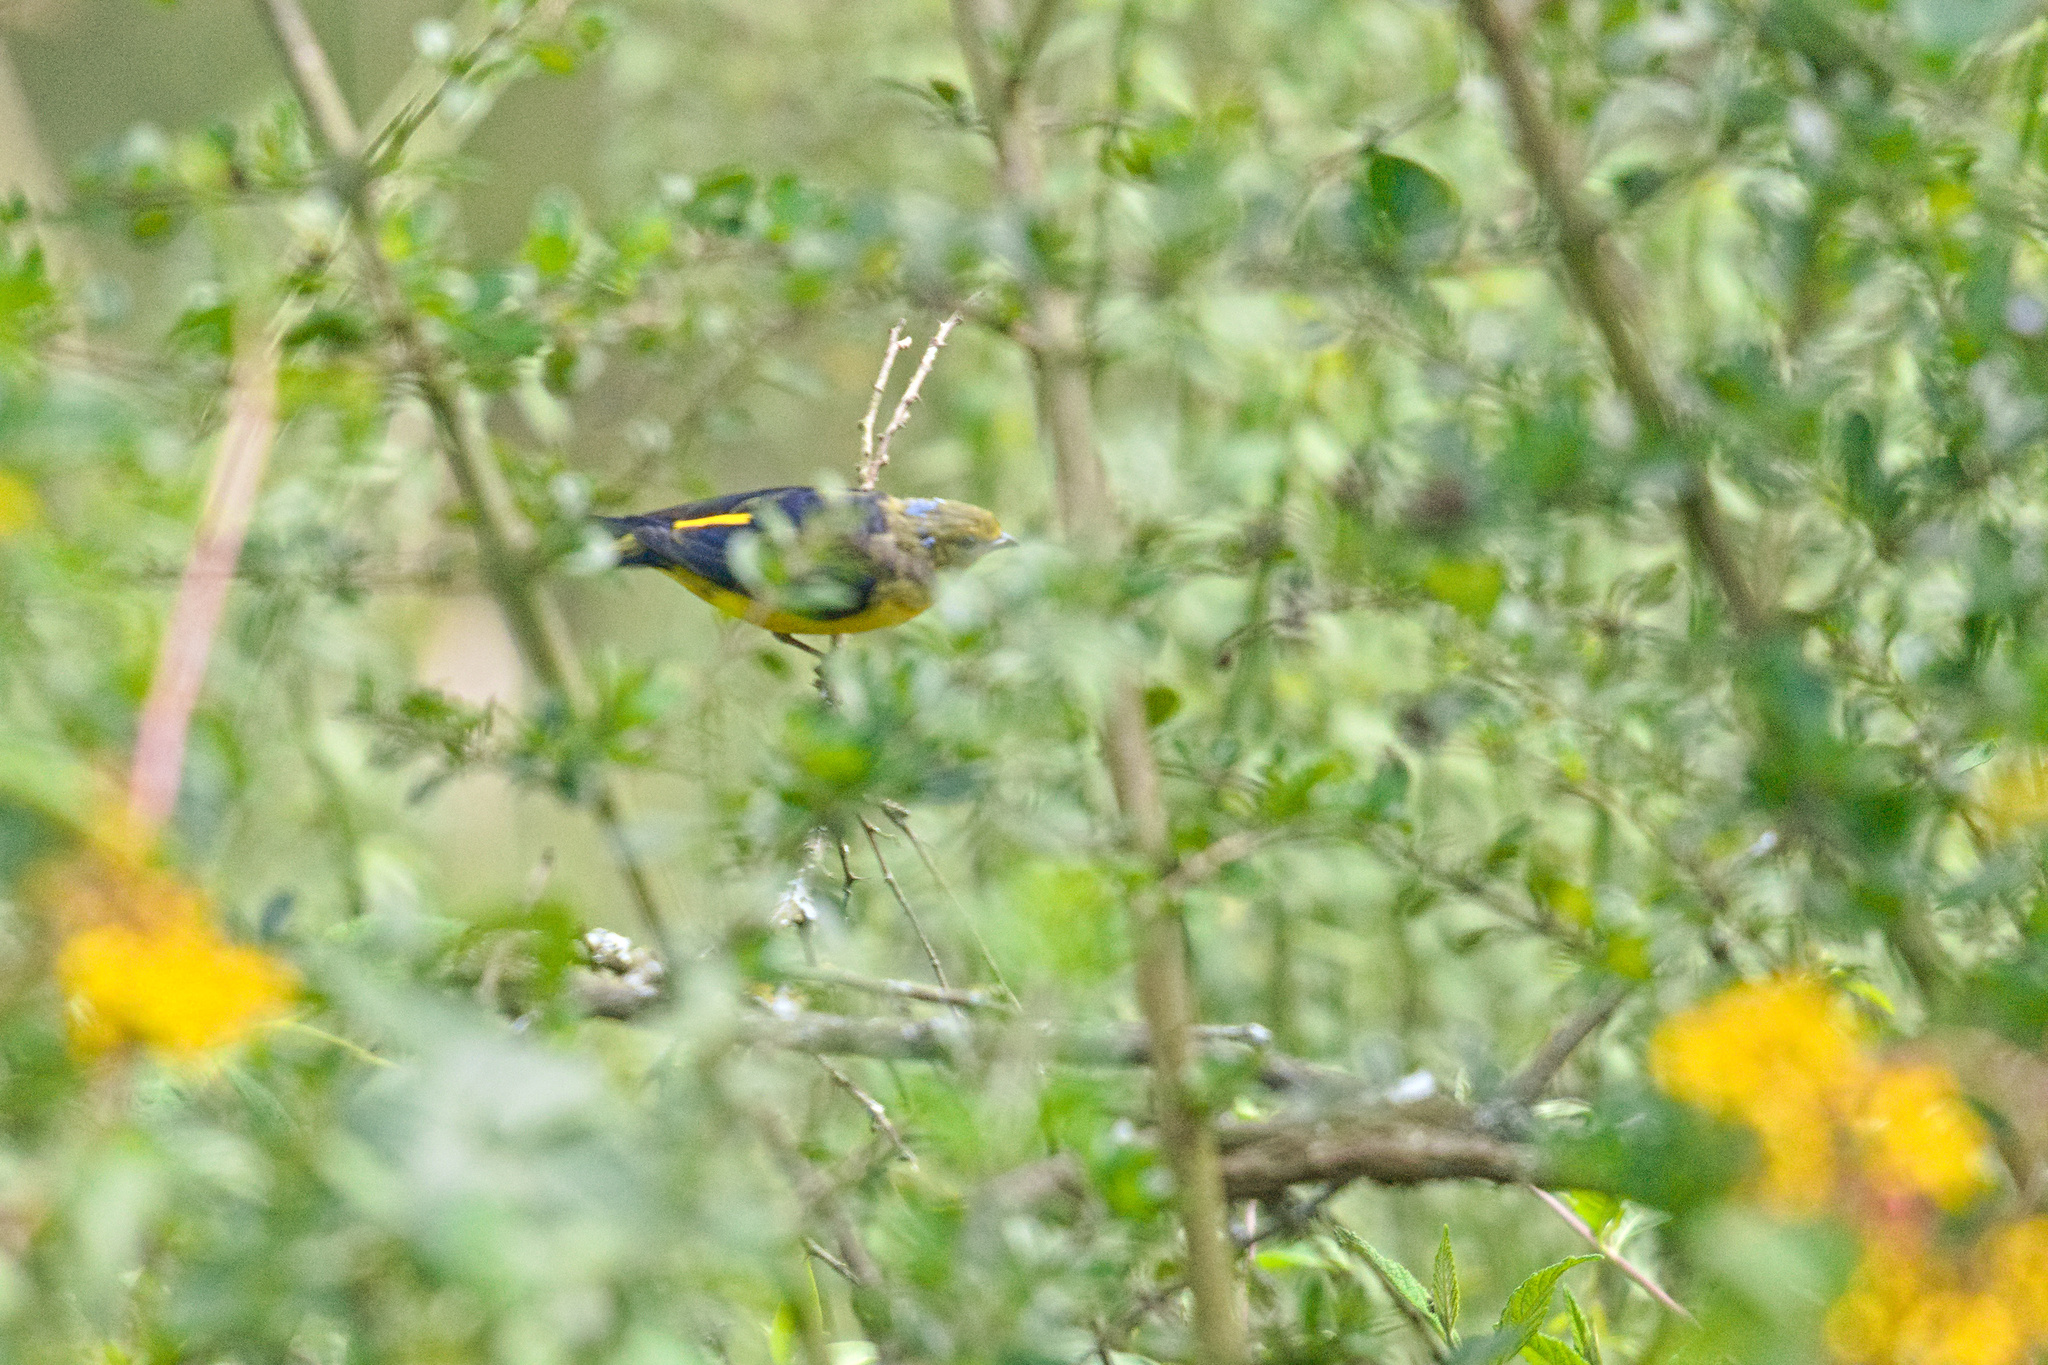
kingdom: Animalia
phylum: Chordata
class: Aves
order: Passeriformes
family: Fringillidae
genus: Euphonia
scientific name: Euphonia cyanocephala
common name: Golden-rumped euphonia
